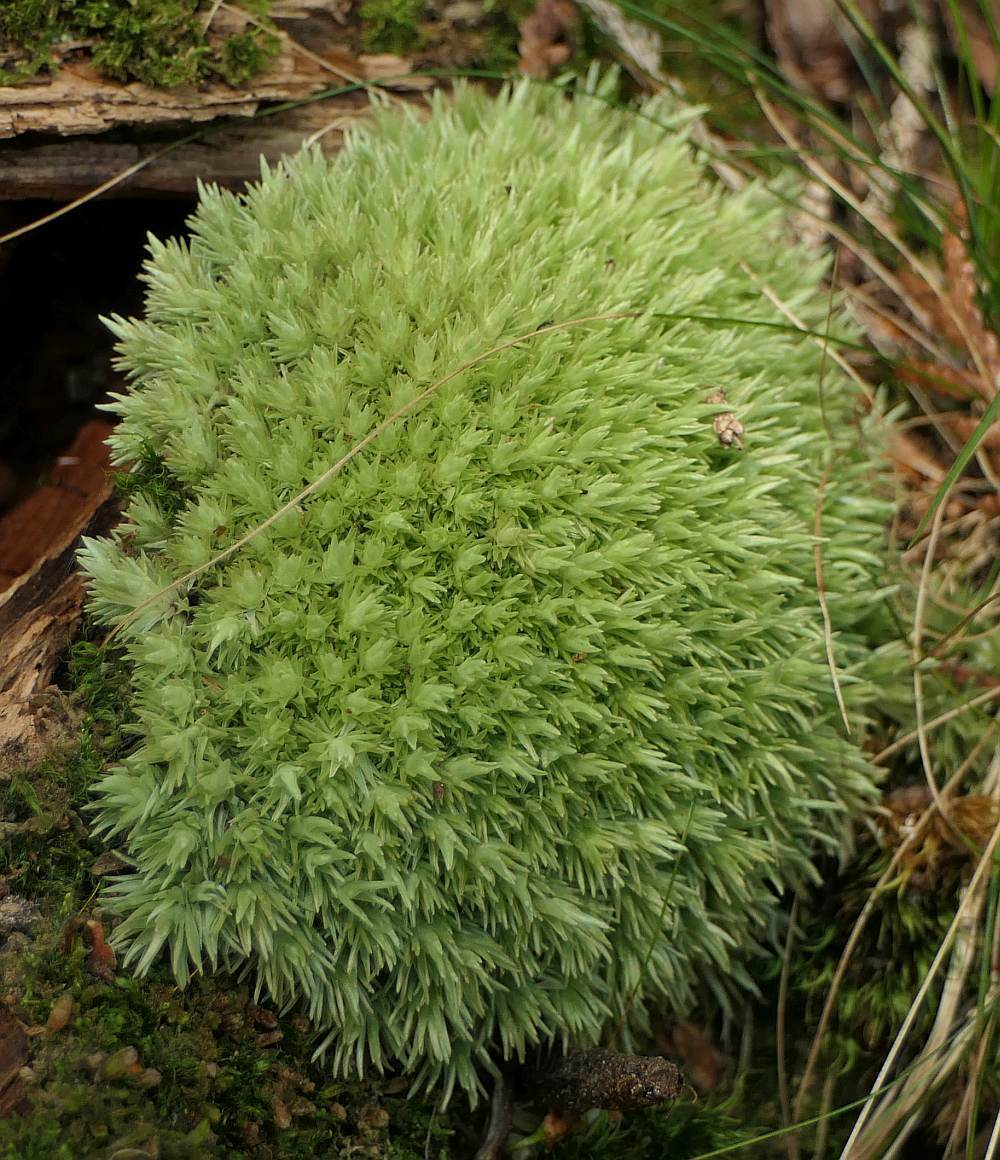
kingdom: Plantae
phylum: Bryophyta
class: Bryopsida
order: Dicranales
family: Leucobryaceae
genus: Leucobryum
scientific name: Leucobryum glaucum
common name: Large white-moss
